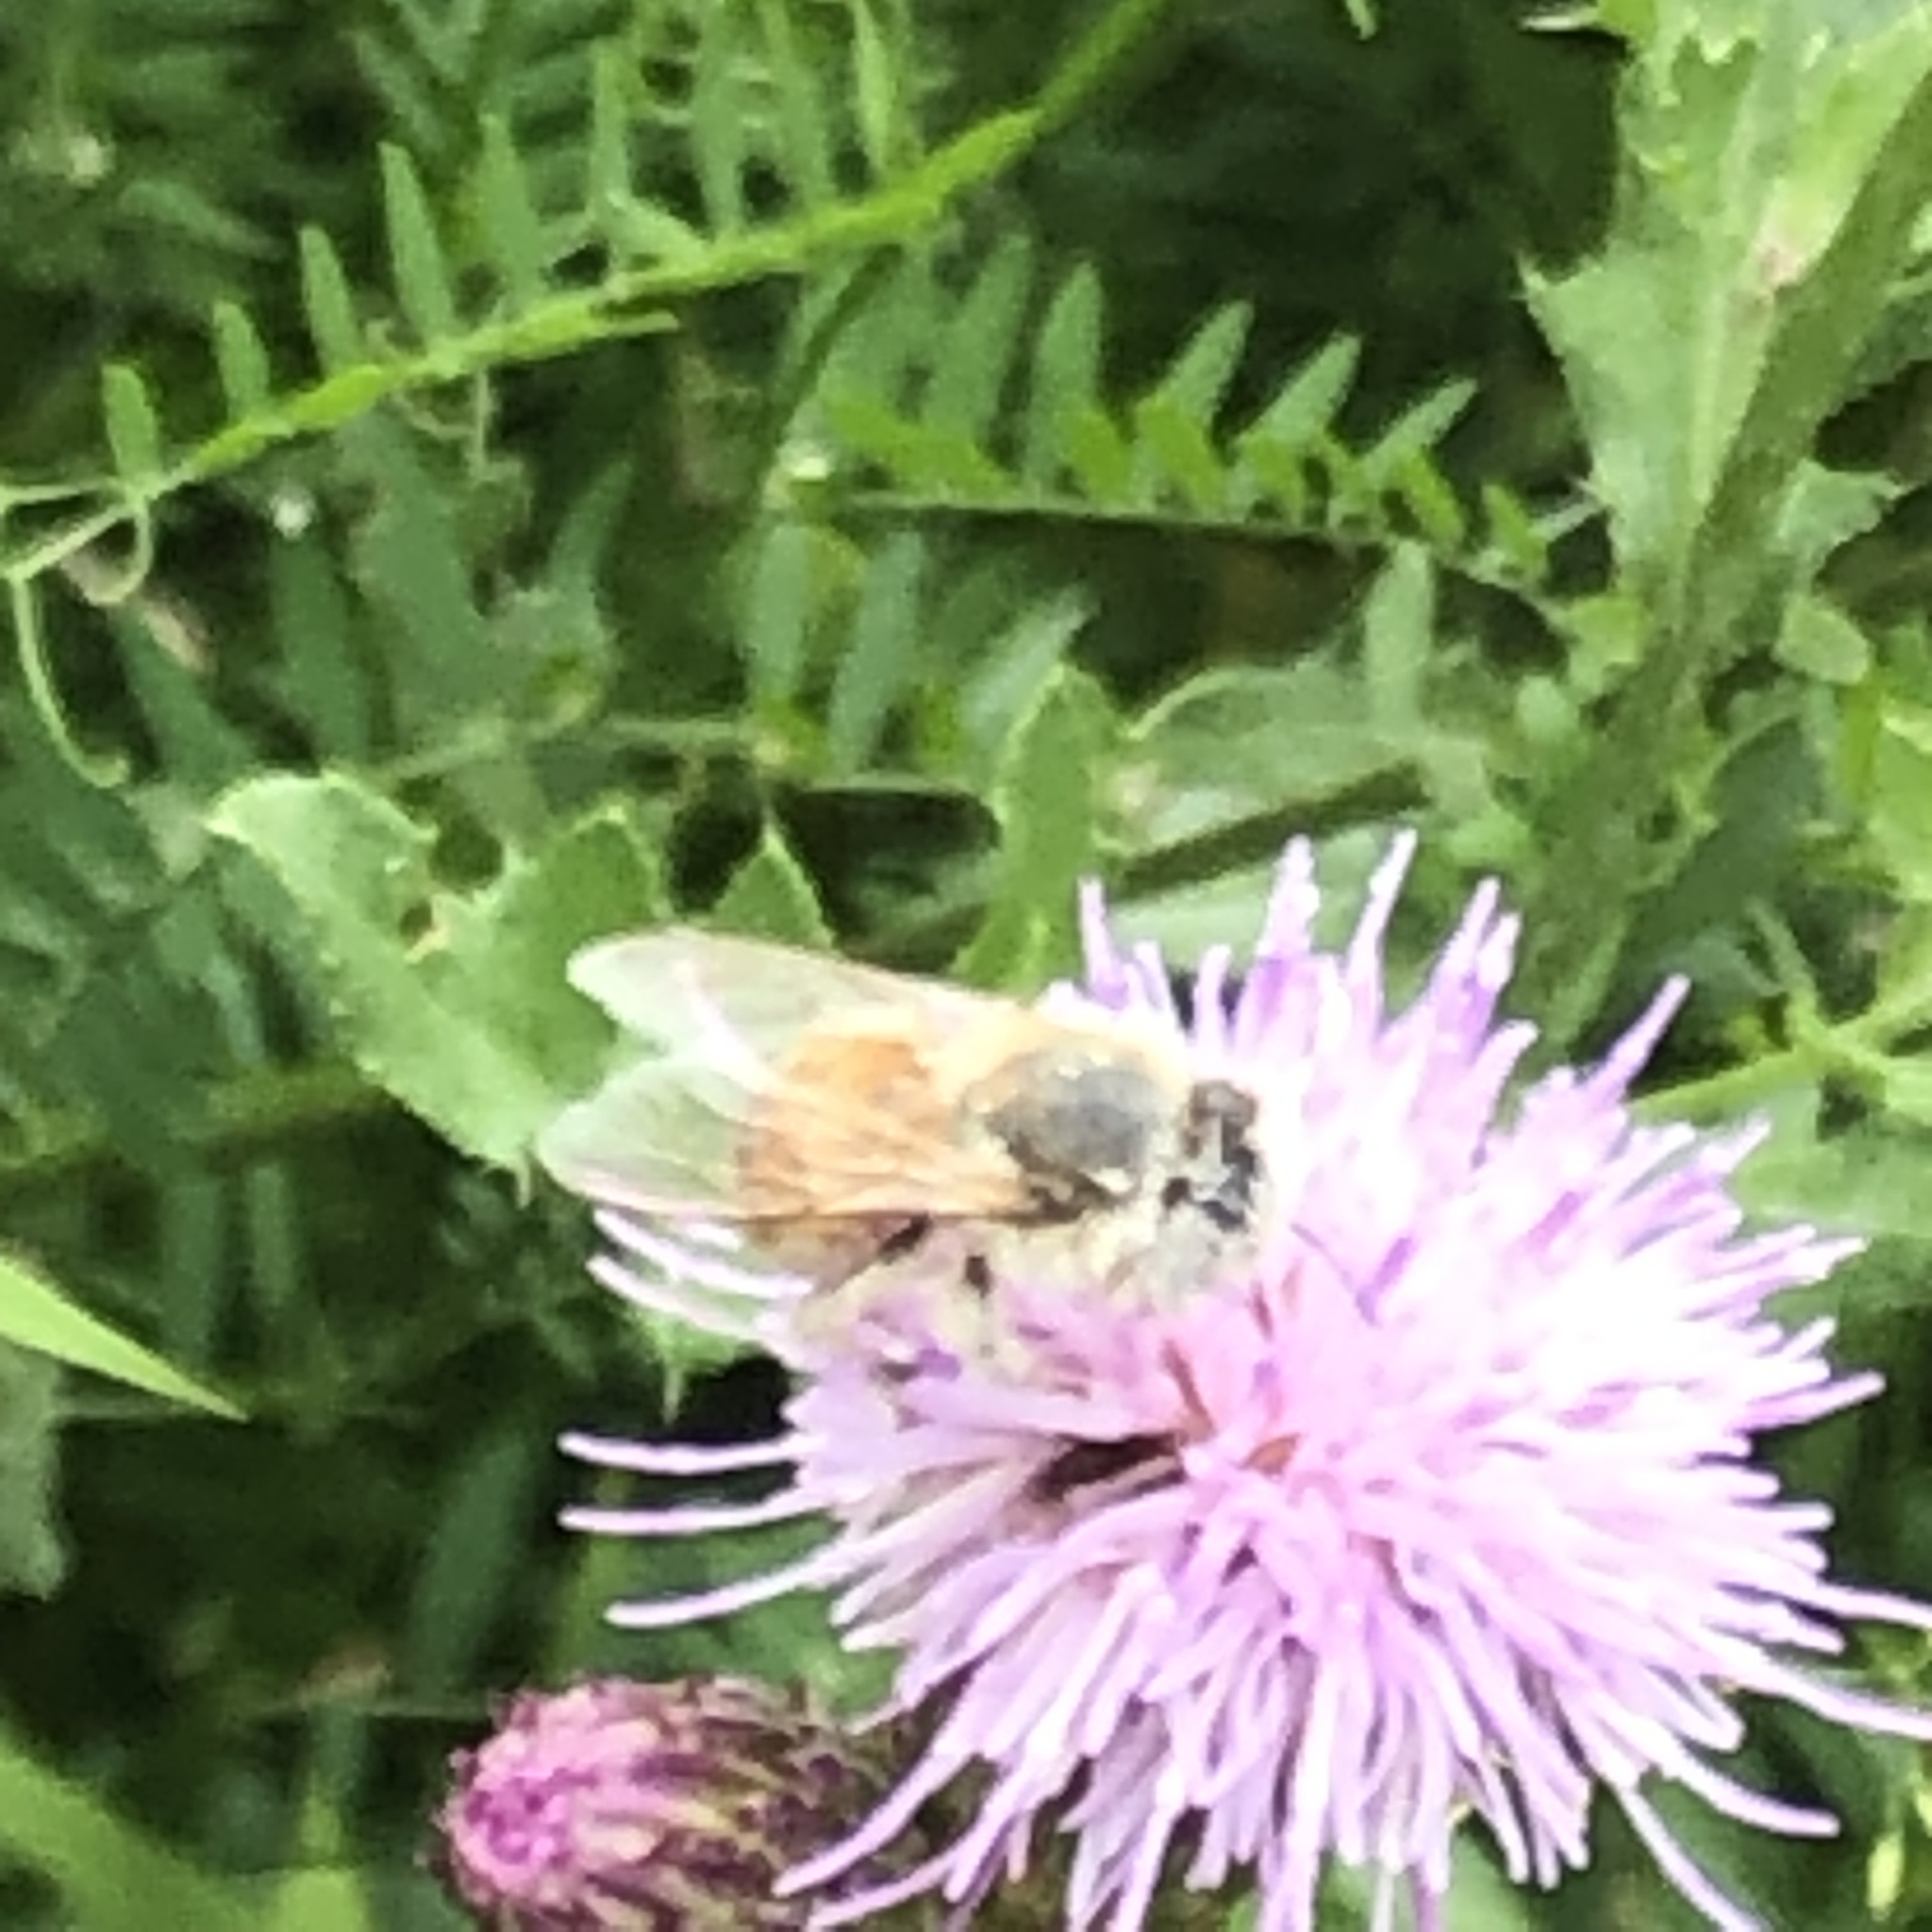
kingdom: Animalia
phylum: Arthropoda
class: Insecta
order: Hymenoptera
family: Apidae
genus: Apis
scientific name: Apis mellifera
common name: Honey bee
